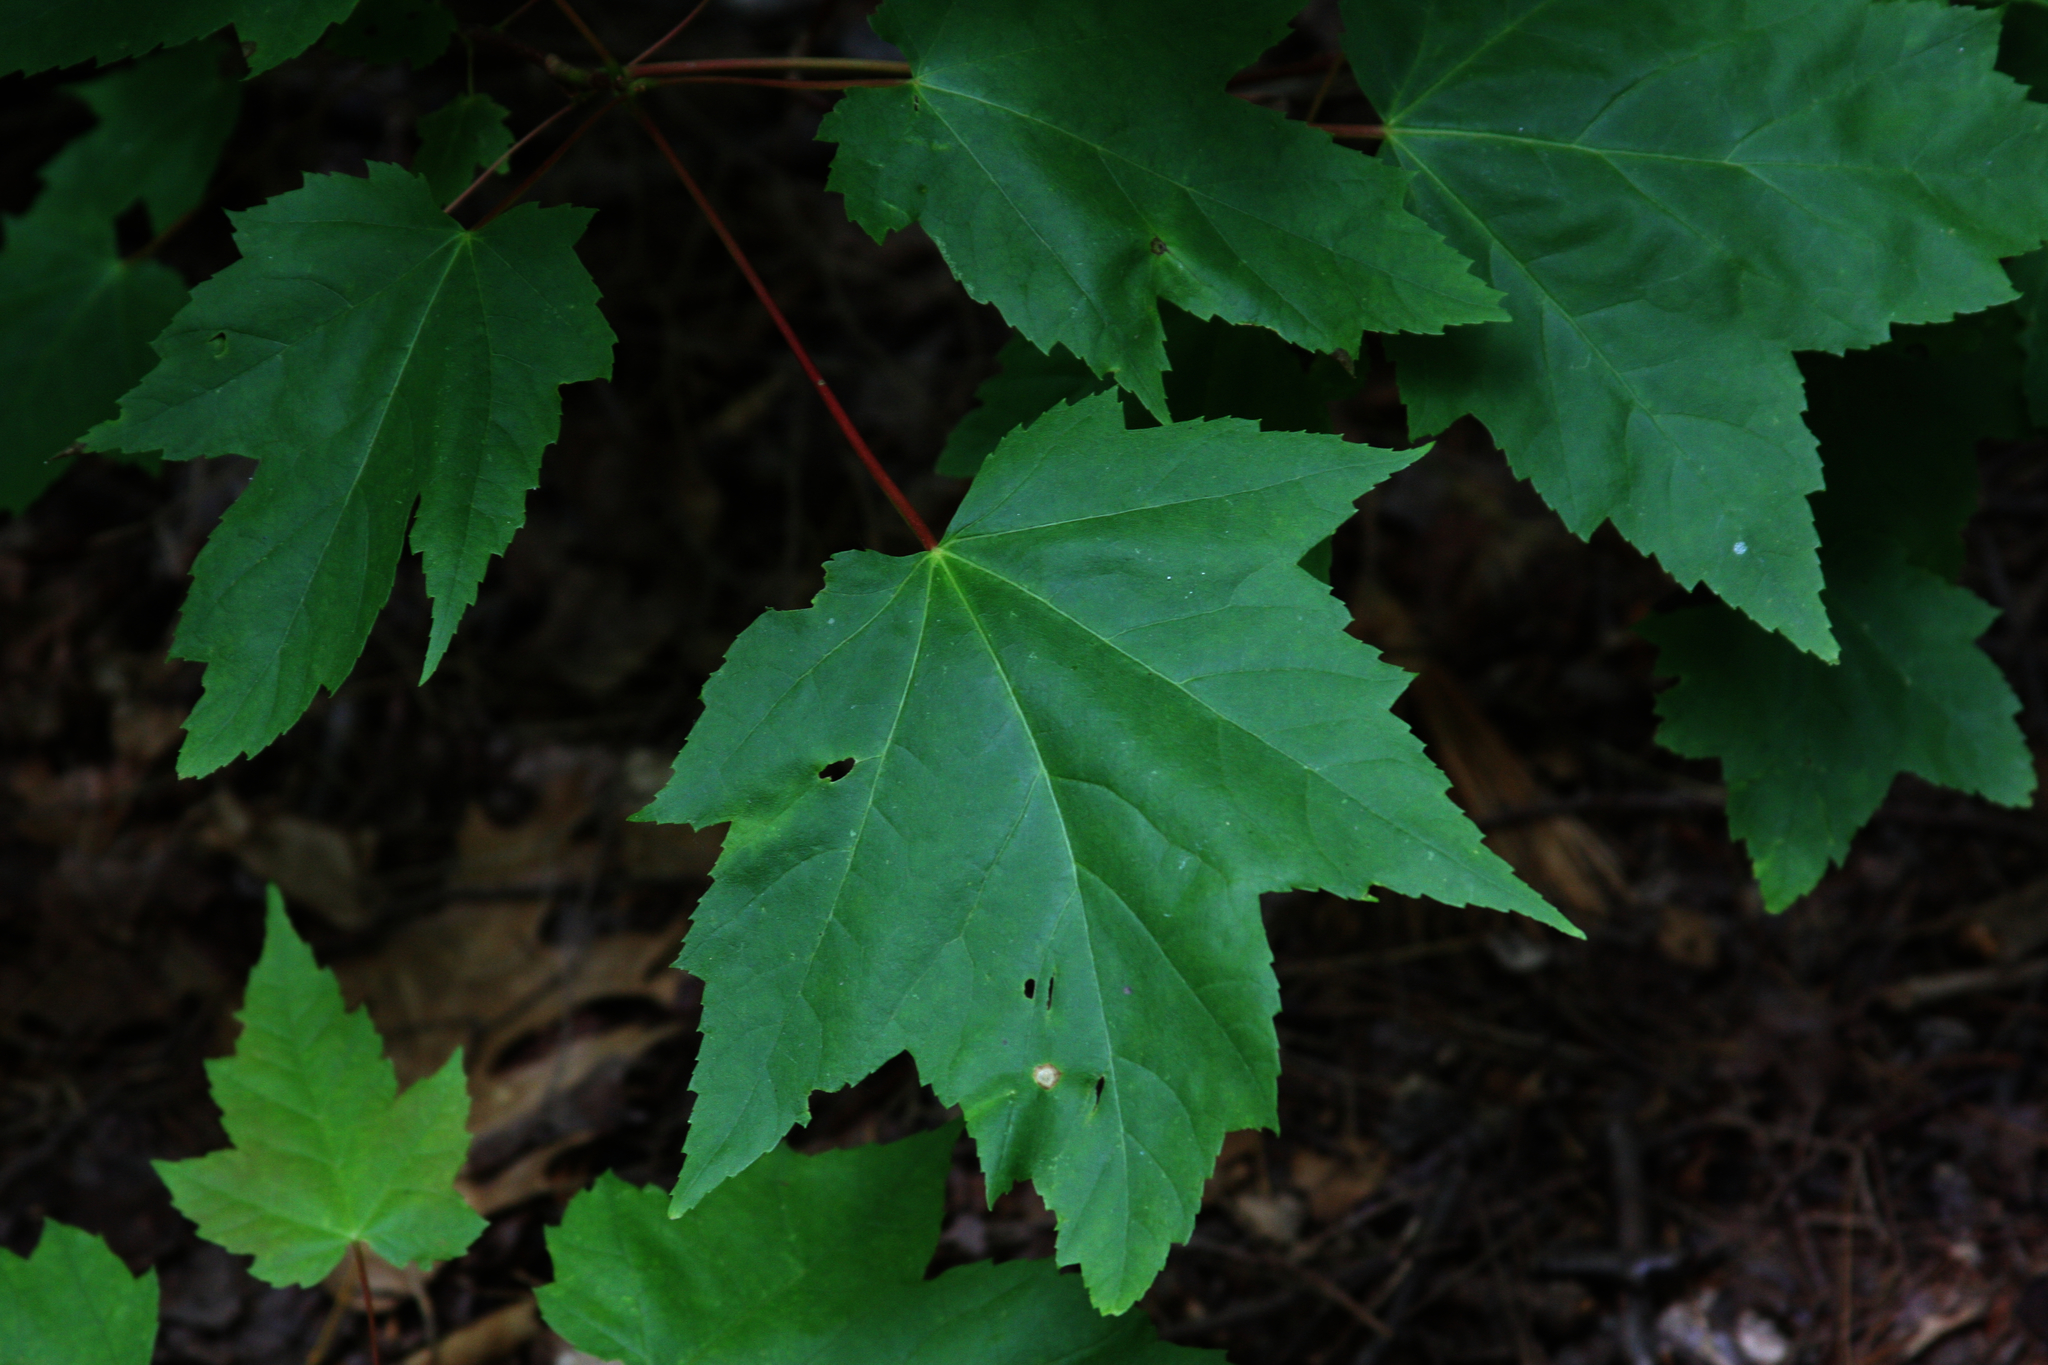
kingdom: Plantae
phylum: Tracheophyta
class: Magnoliopsida
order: Sapindales
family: Sapindaceae
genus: Acer
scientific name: Acer rubrum
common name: Red maple
